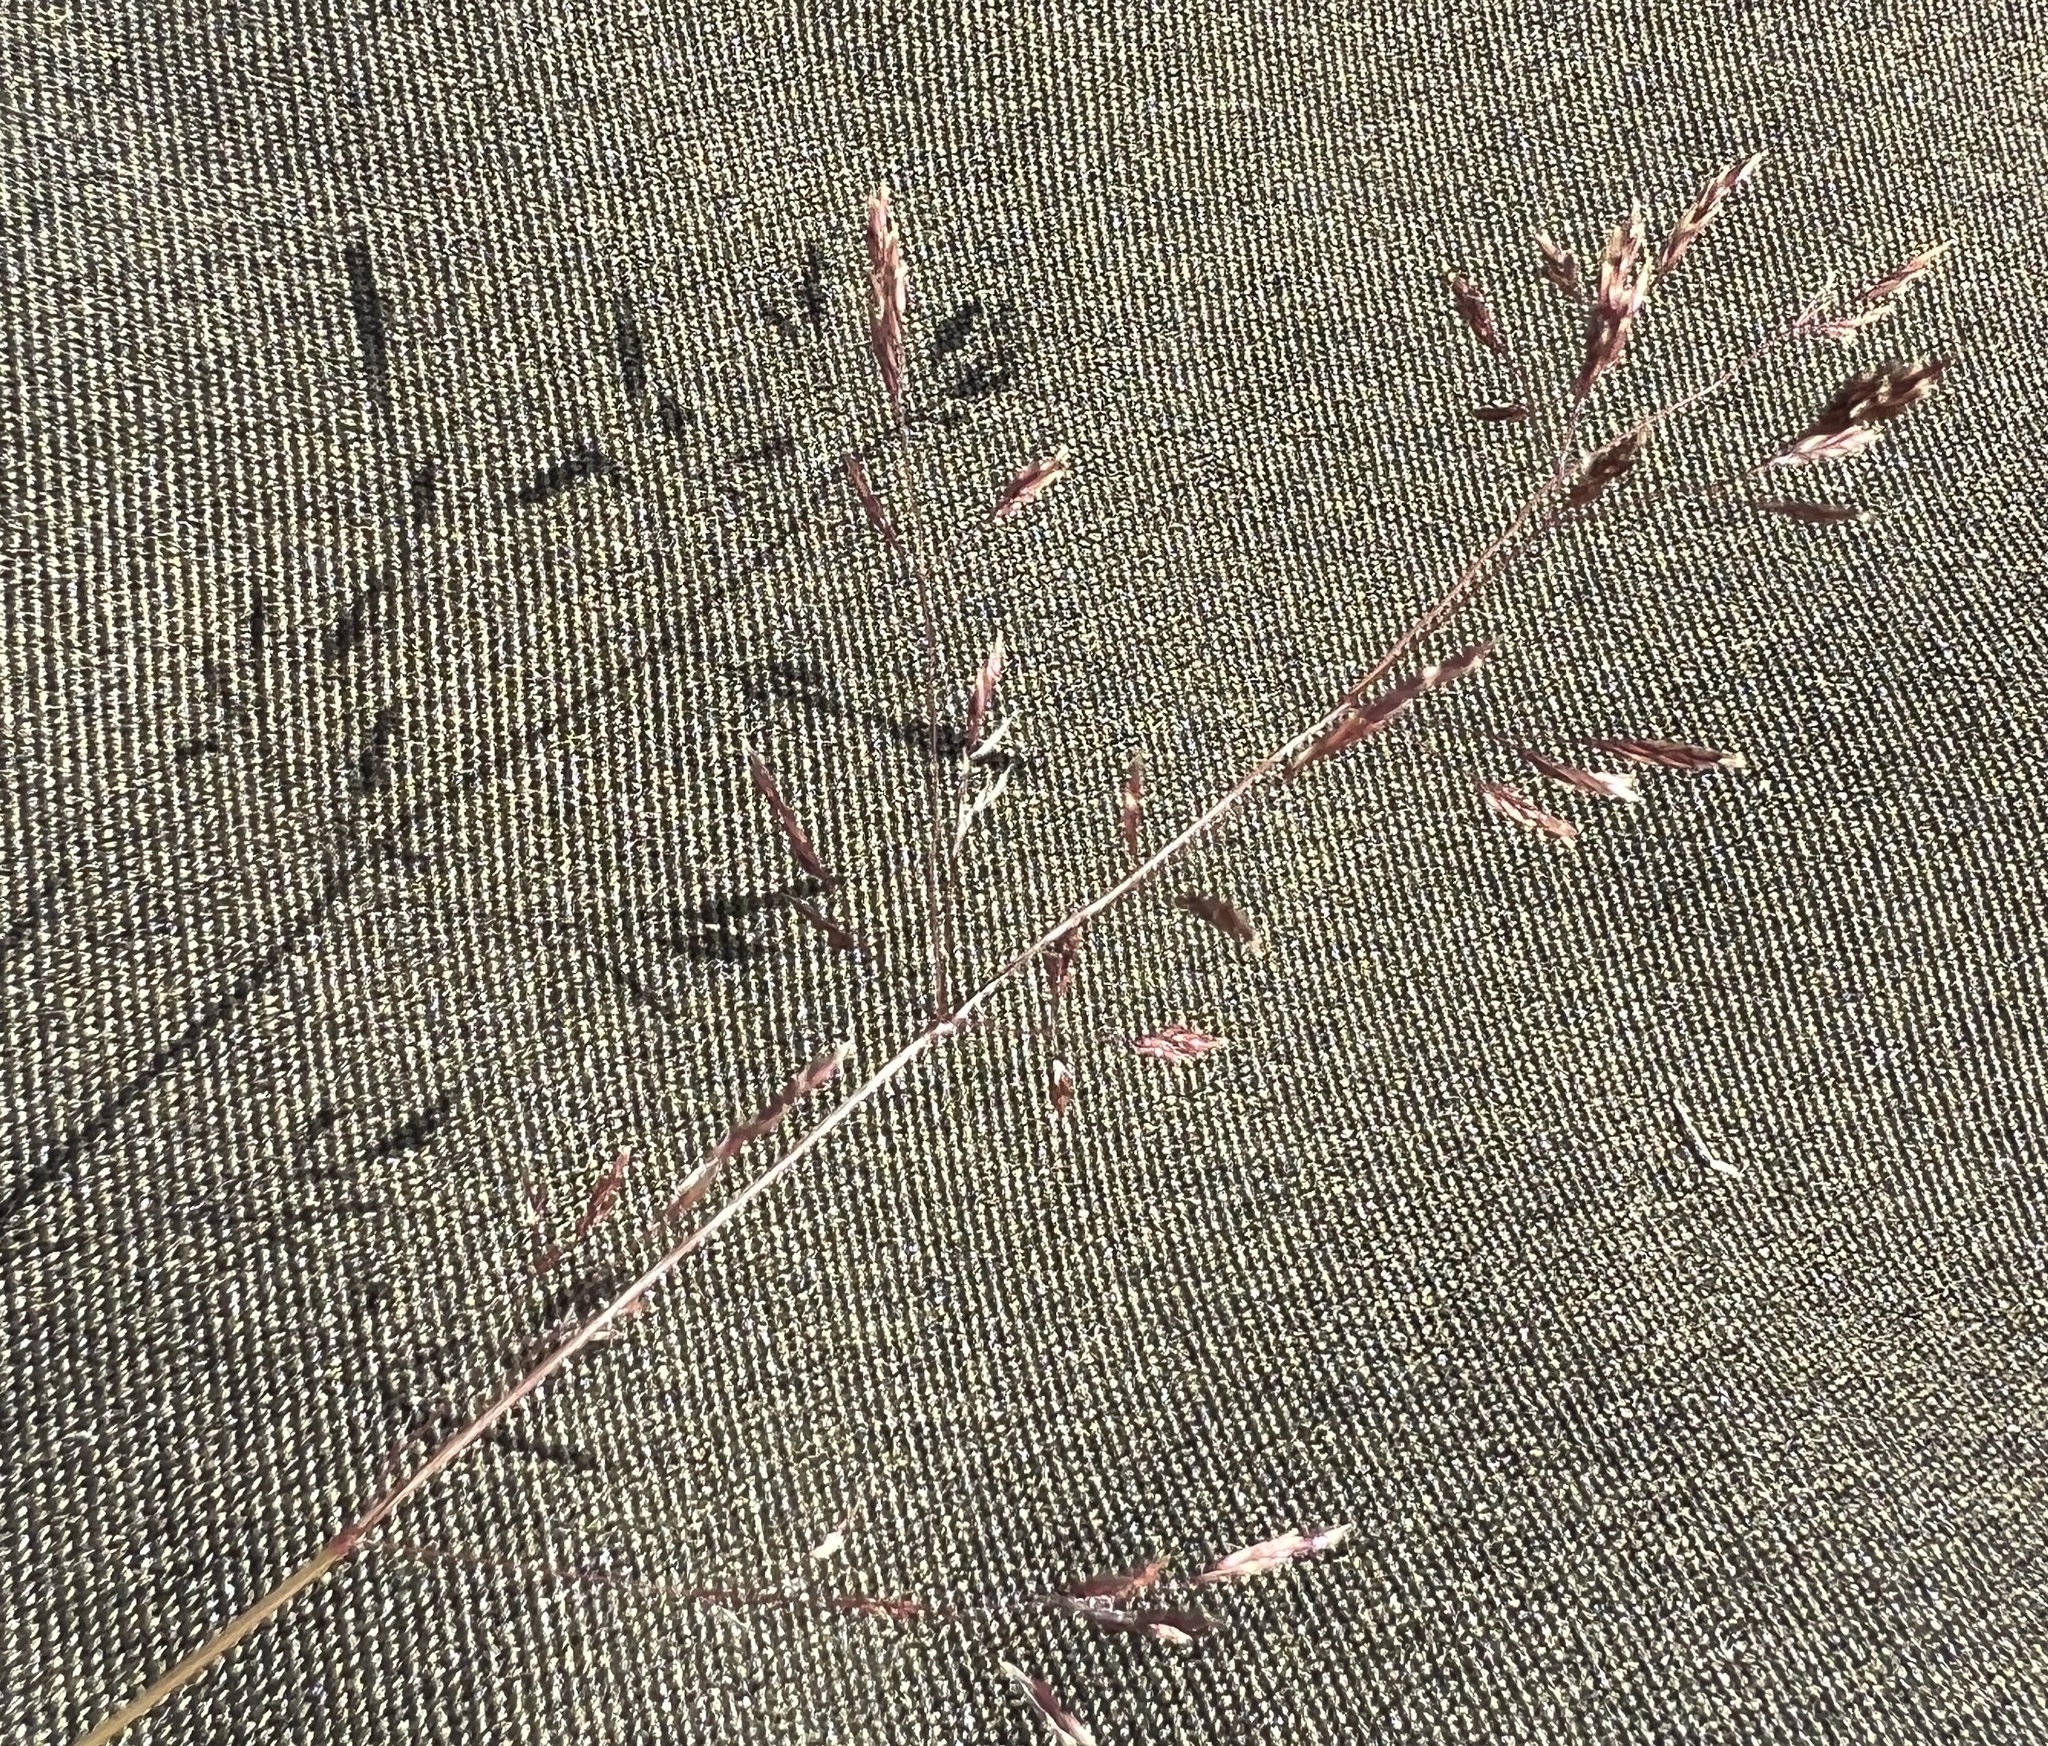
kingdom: Plantae
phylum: Tracheophyta
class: Liliopsida
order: Poales
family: Poaceae
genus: Agrostis
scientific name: Agrostis capillaris
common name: Colonial bentgrass
